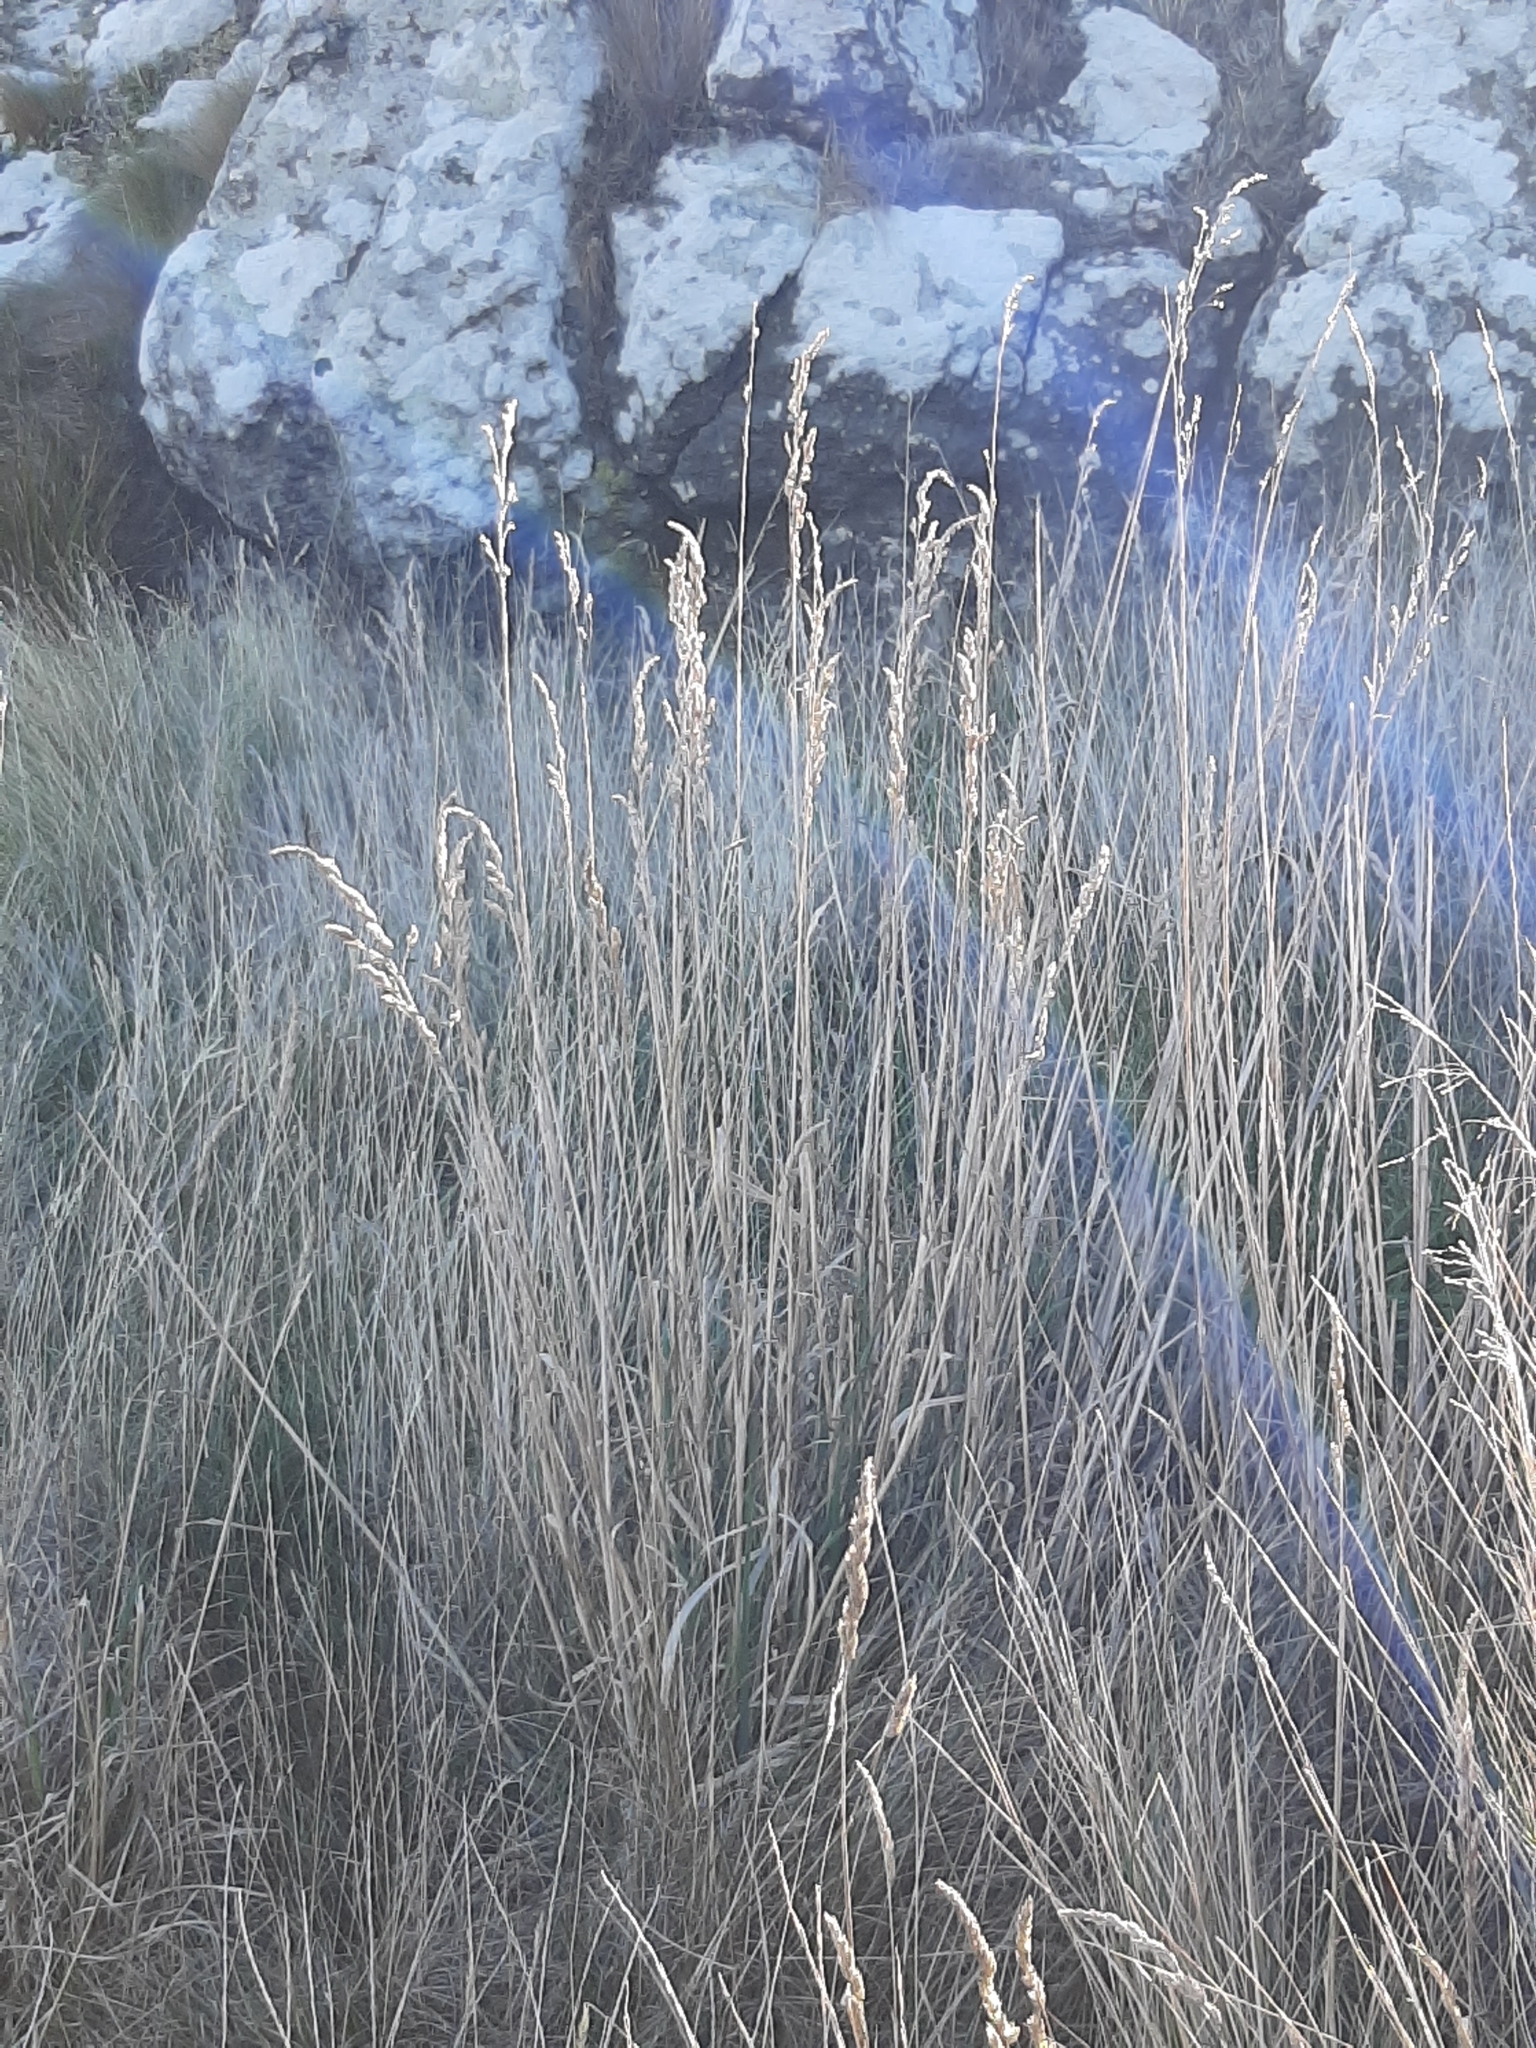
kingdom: Plantae
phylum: Tracheophyta
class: Liliopsida
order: Poales
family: Poaceae
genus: Dactylis
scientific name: Dactylis glomerata
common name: Orchardgrass
